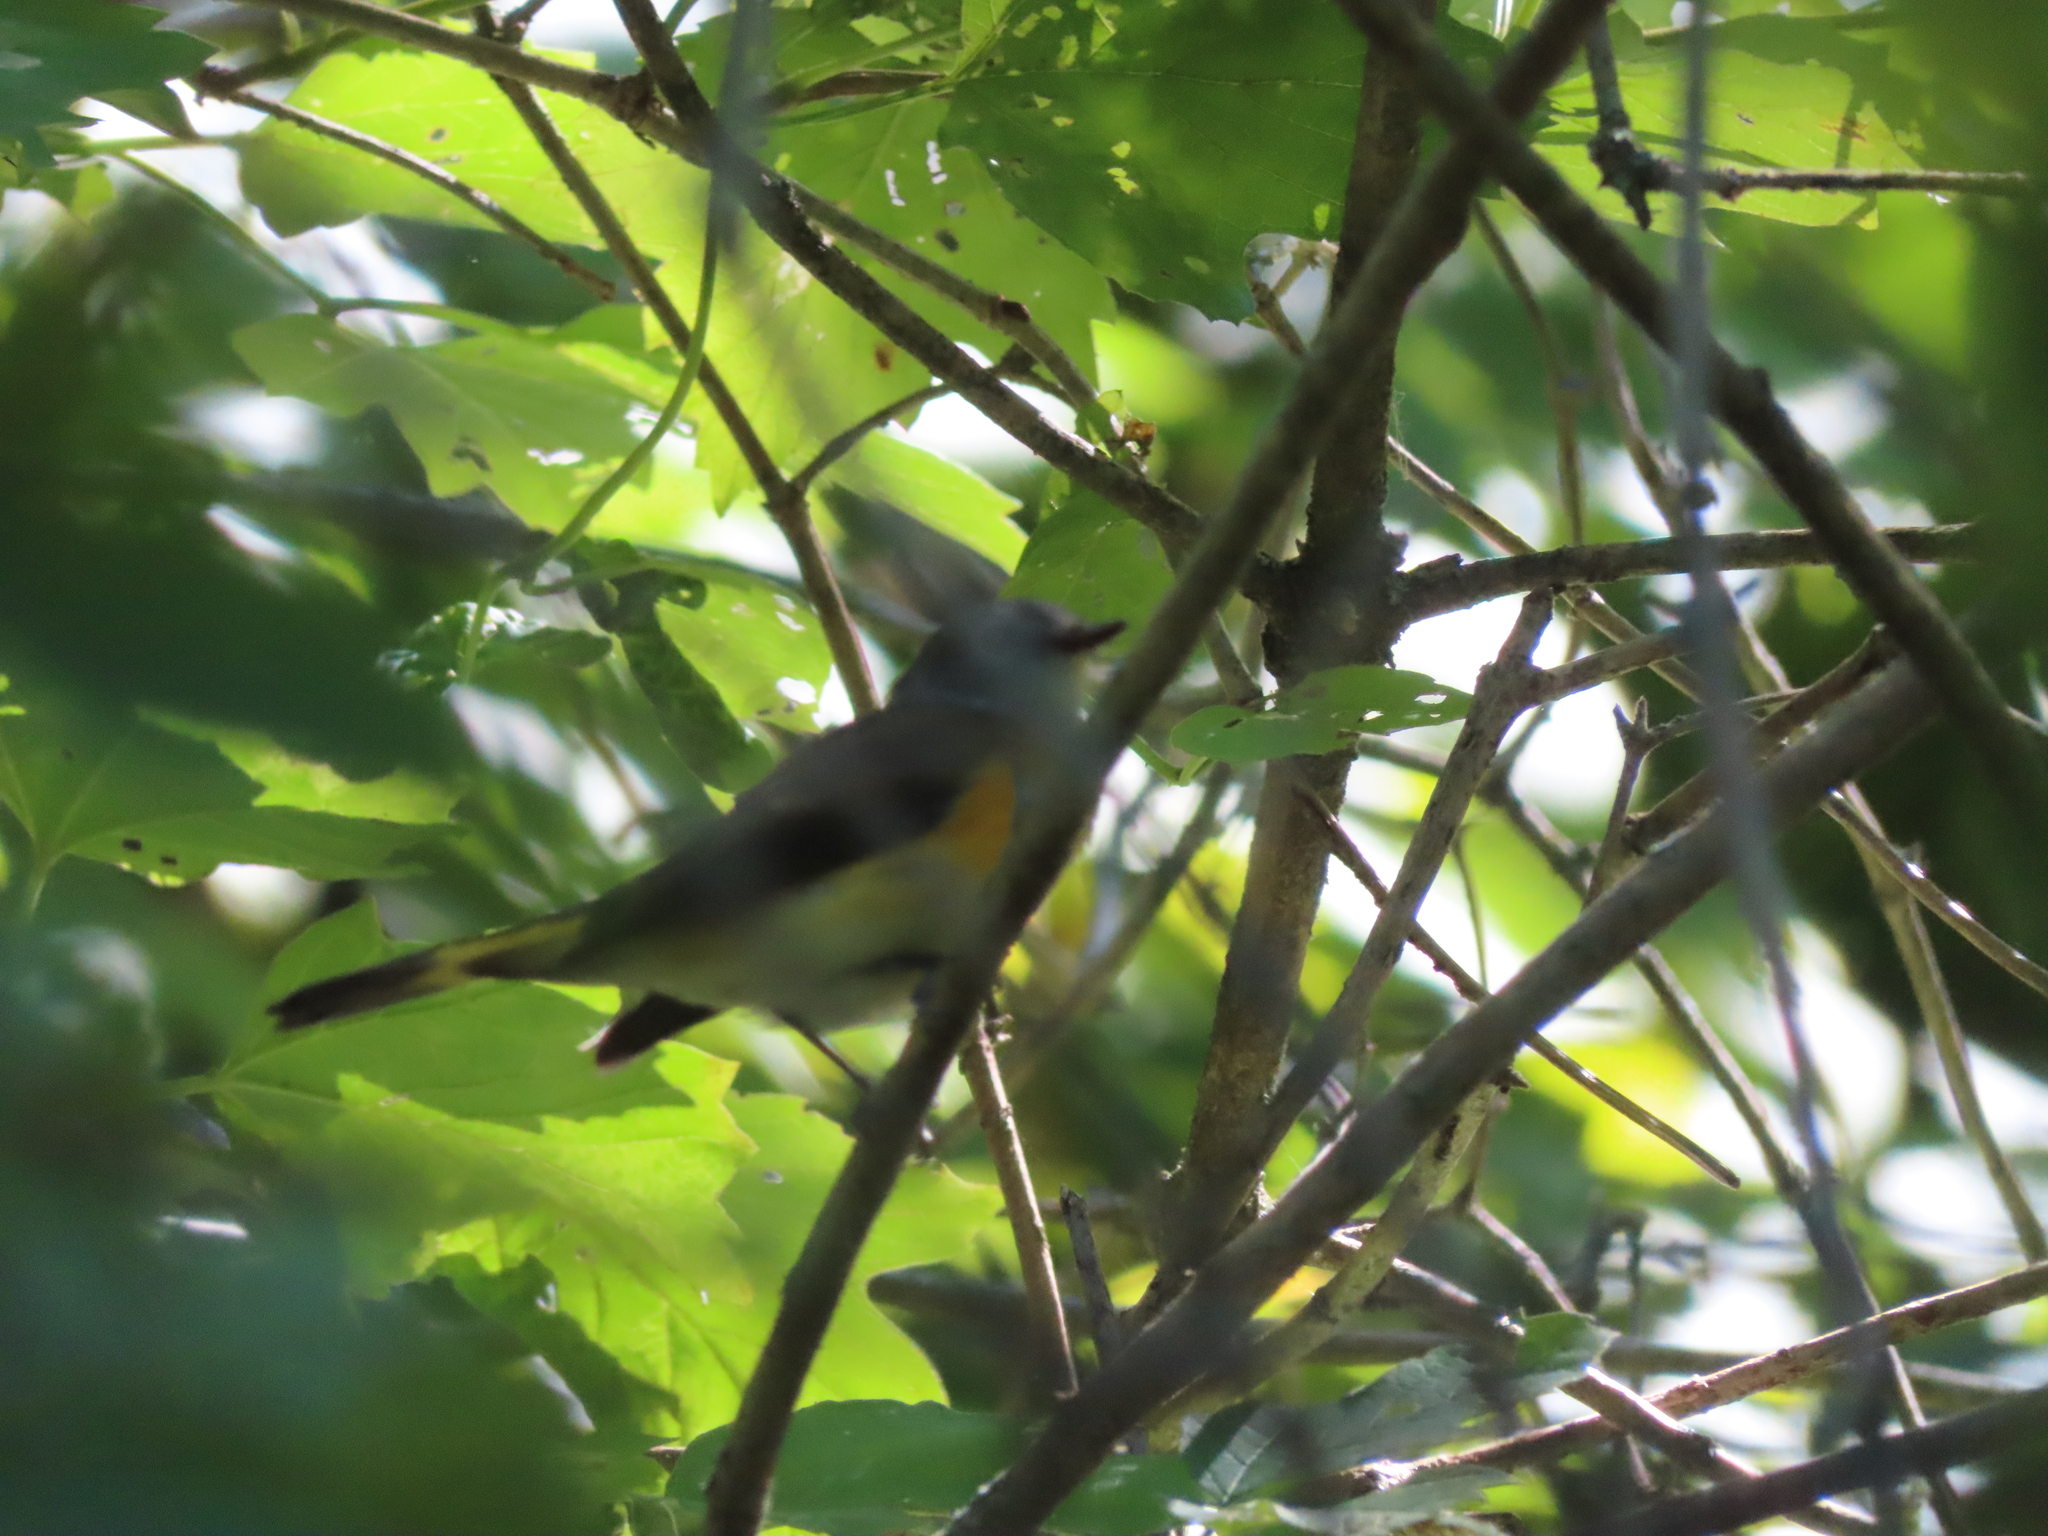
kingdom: Animalia
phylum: Chordata
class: Aves
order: Passeriformes
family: Parulidae
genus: Setophaga
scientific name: Setophaga ruticilla
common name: American redstart
